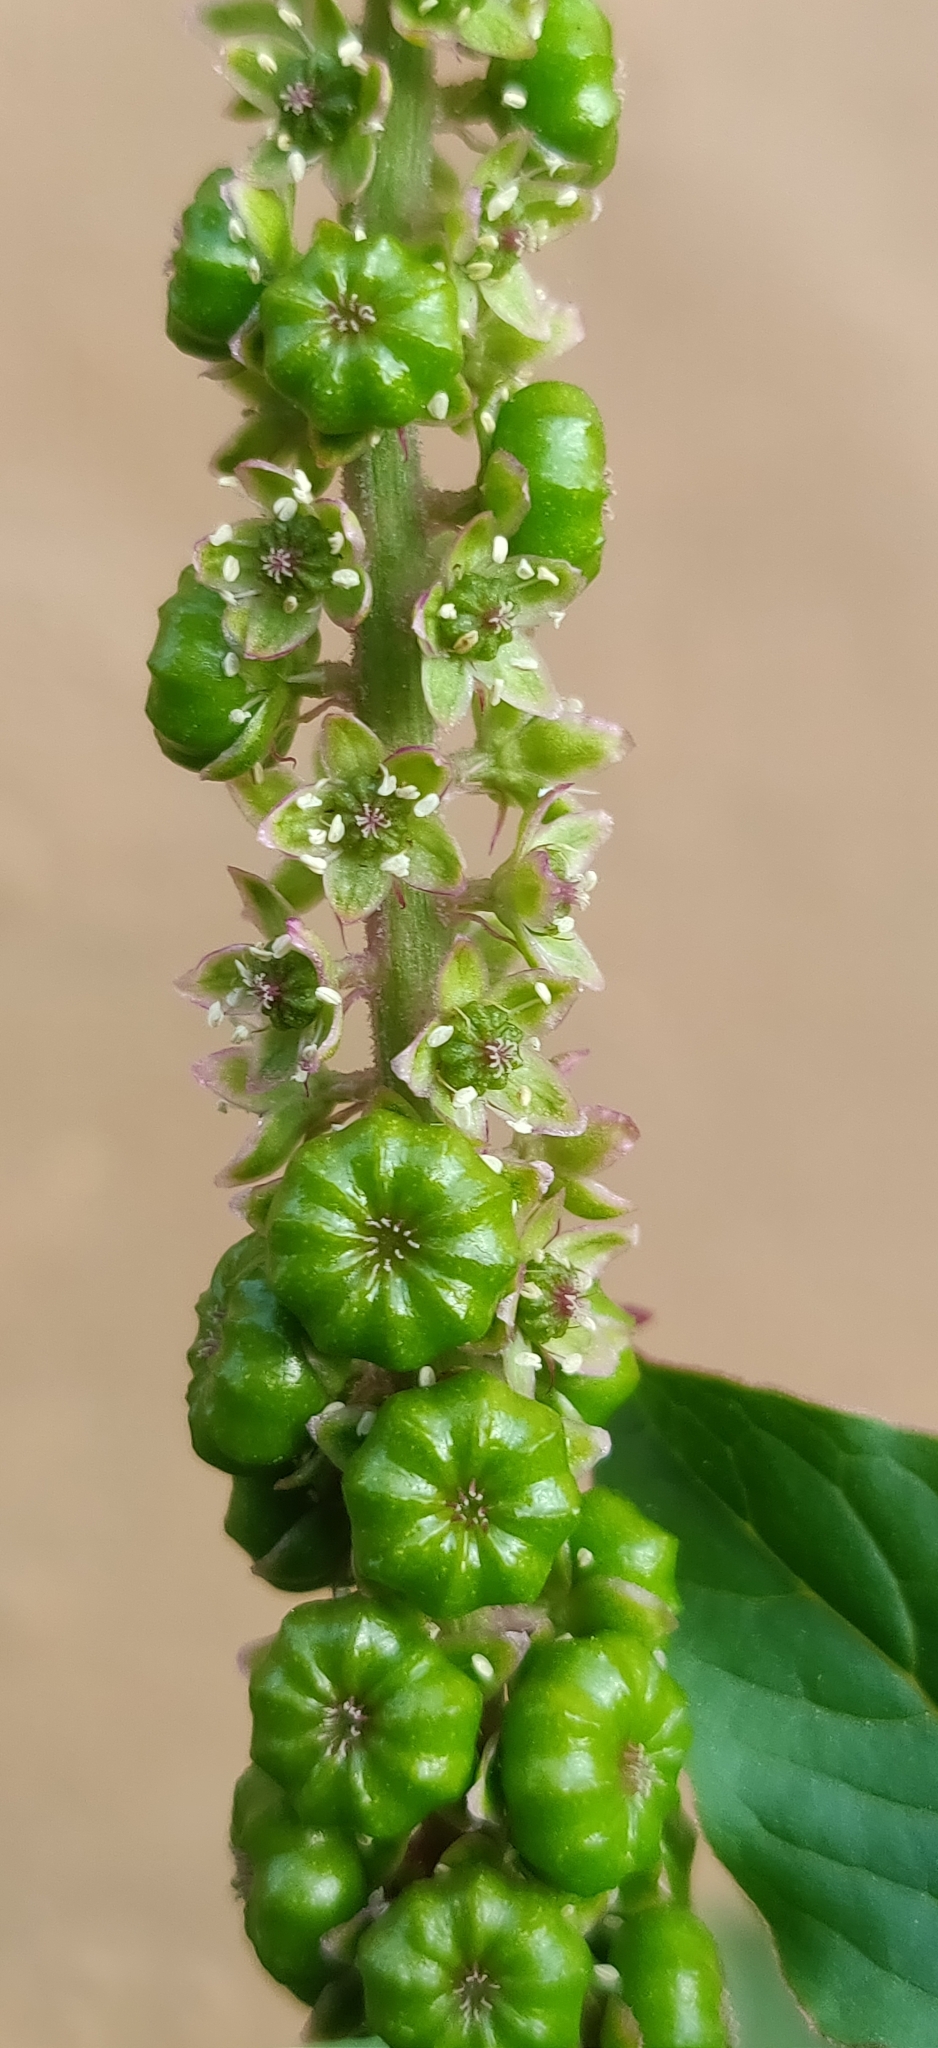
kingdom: Plantae
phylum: Tracheophyta
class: Magnoliopsida
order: Caryophyllales
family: Phytolaccaceae
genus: Phytolacca
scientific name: Phytolacca icosandra
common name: Button pokeweed
